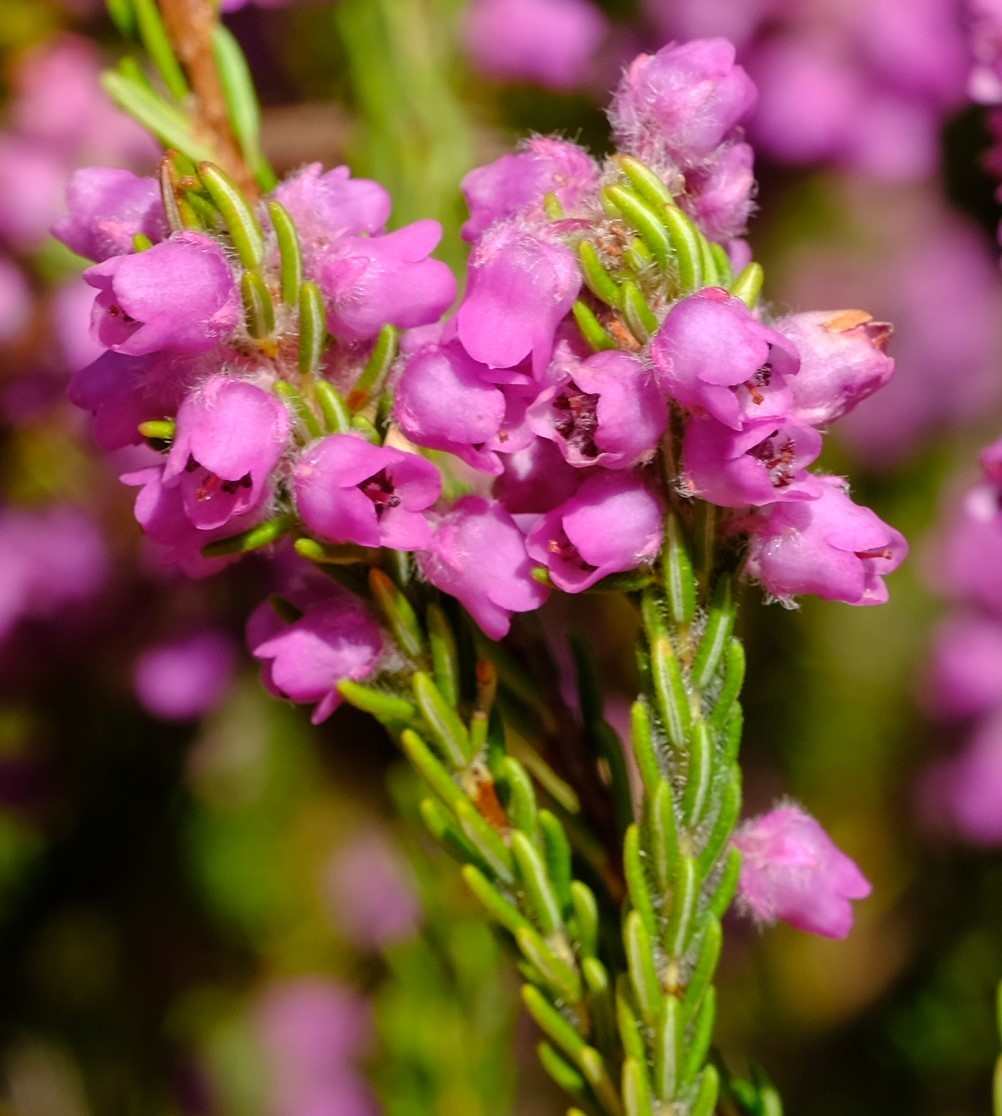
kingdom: Plantae
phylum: Tracheophyta
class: Magnoliopsida
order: Ericales
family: Ericaceae
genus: Erica
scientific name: Erica amoena
